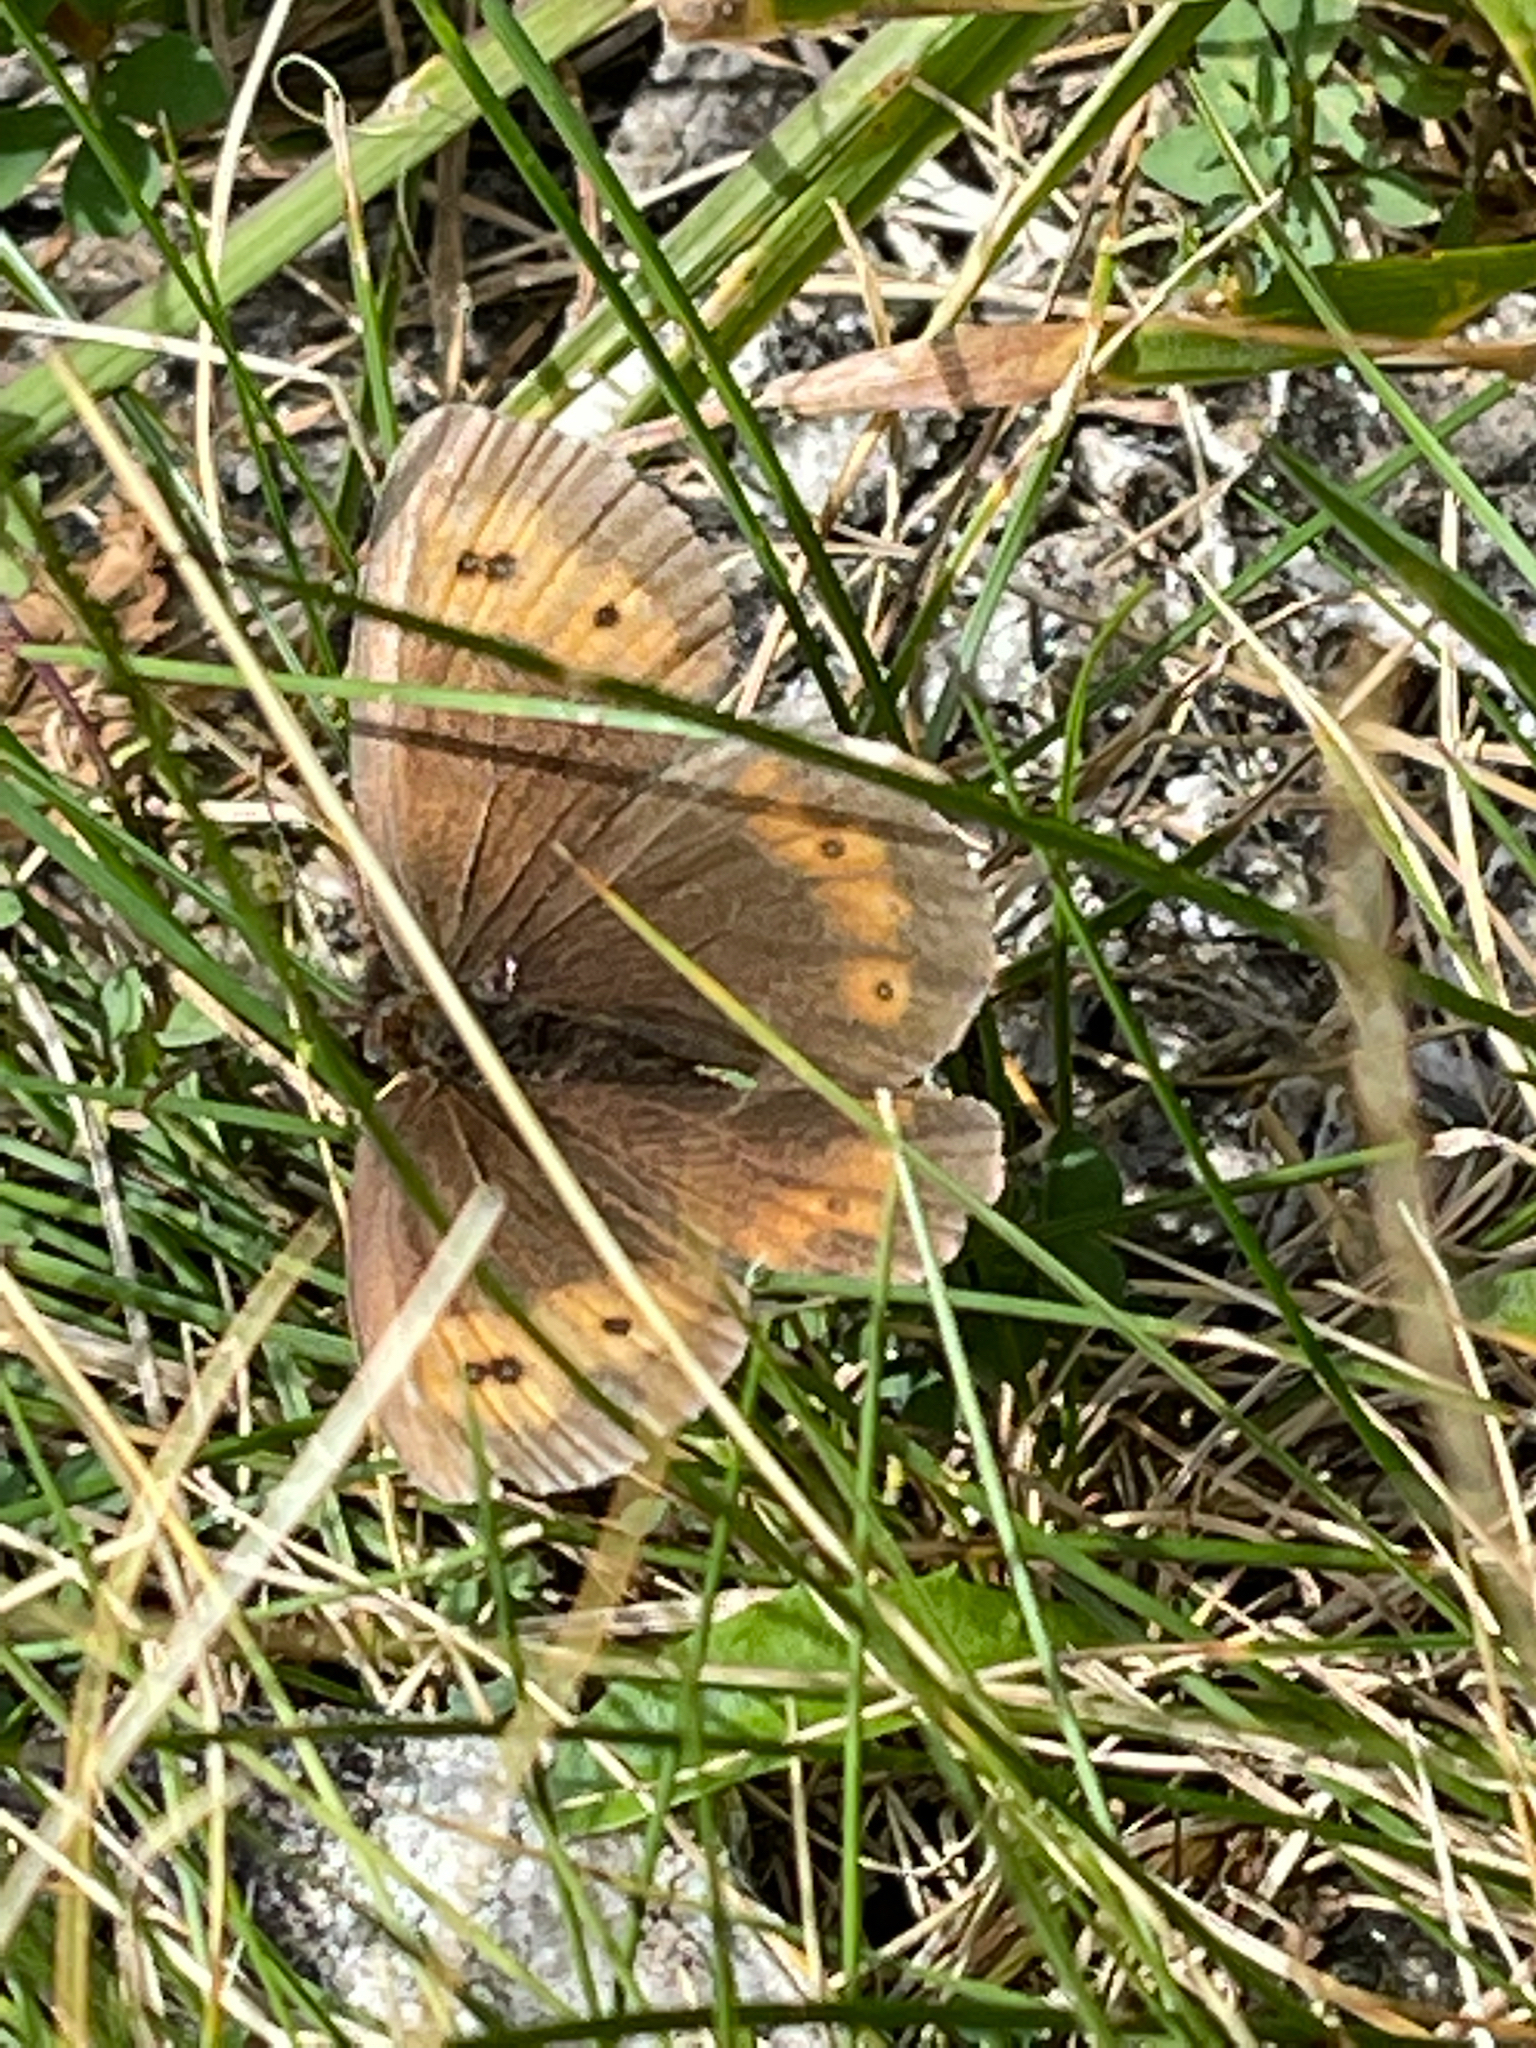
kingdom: Animalia
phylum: Arthropoda
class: Insecta
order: Lepidoptera
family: Nymphalidae
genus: Erebia
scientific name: Erebia euryale
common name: Large ringlet
